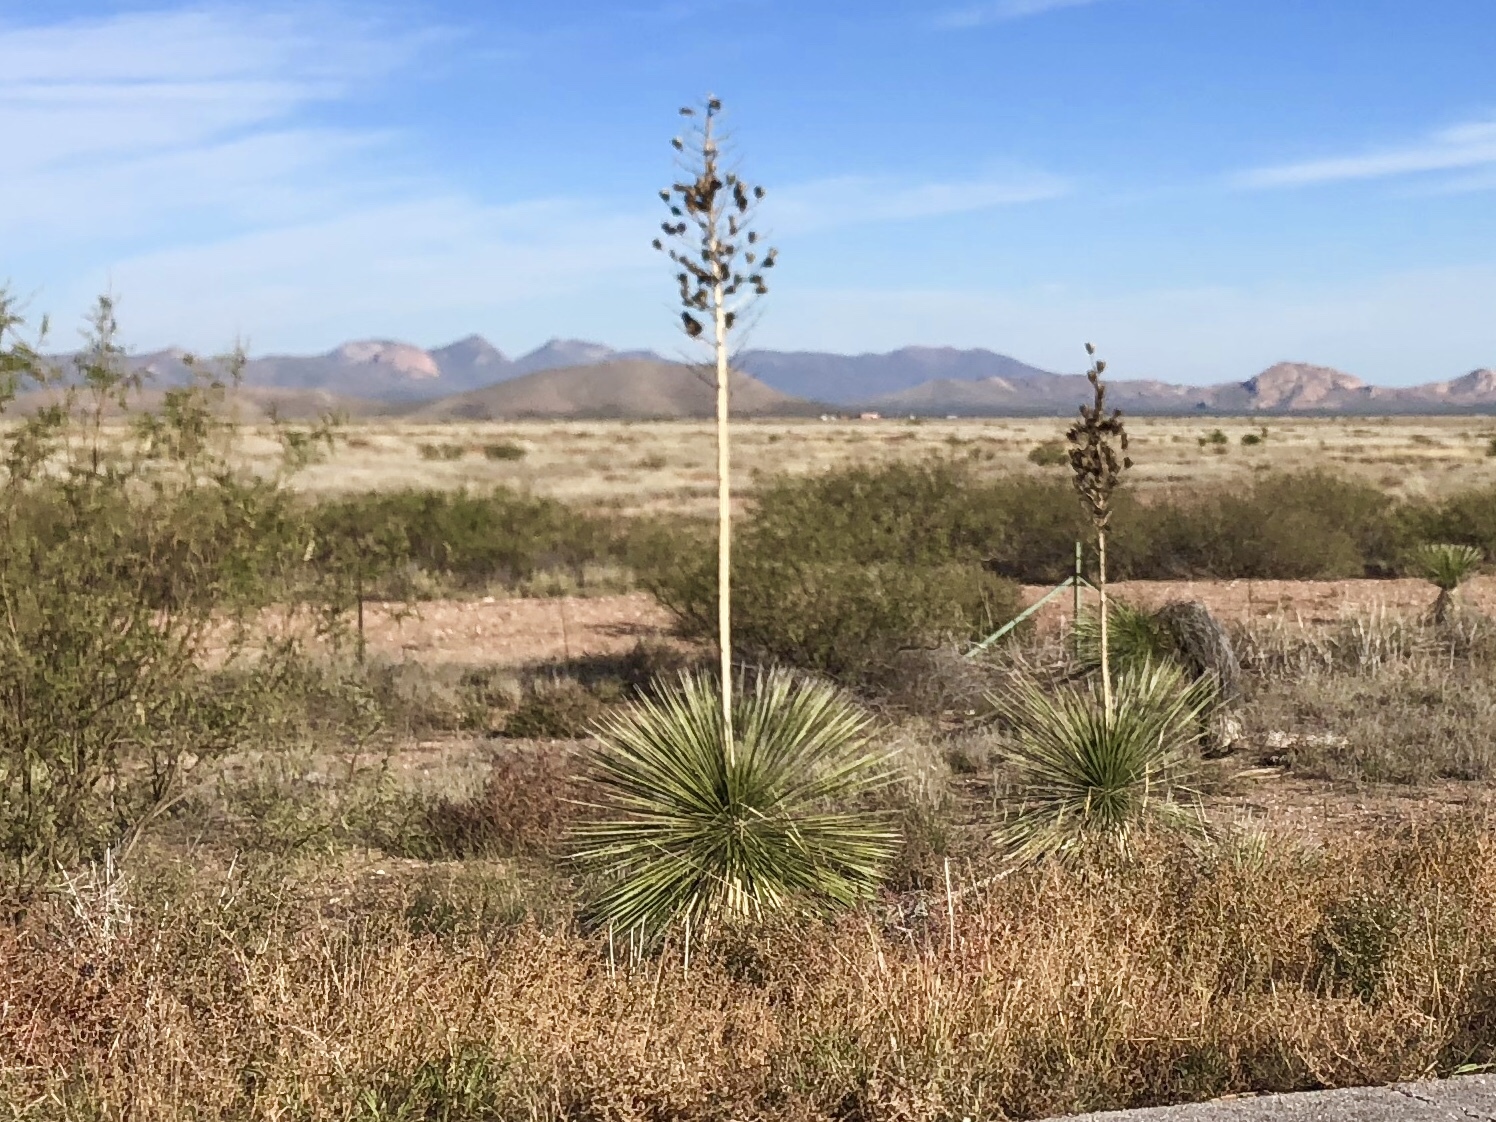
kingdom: Plantae
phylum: Tracheophyta
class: Liliopsida
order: Asparagales
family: Asparagaceae
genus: Yucca
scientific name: Yucca elata
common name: Palmella
